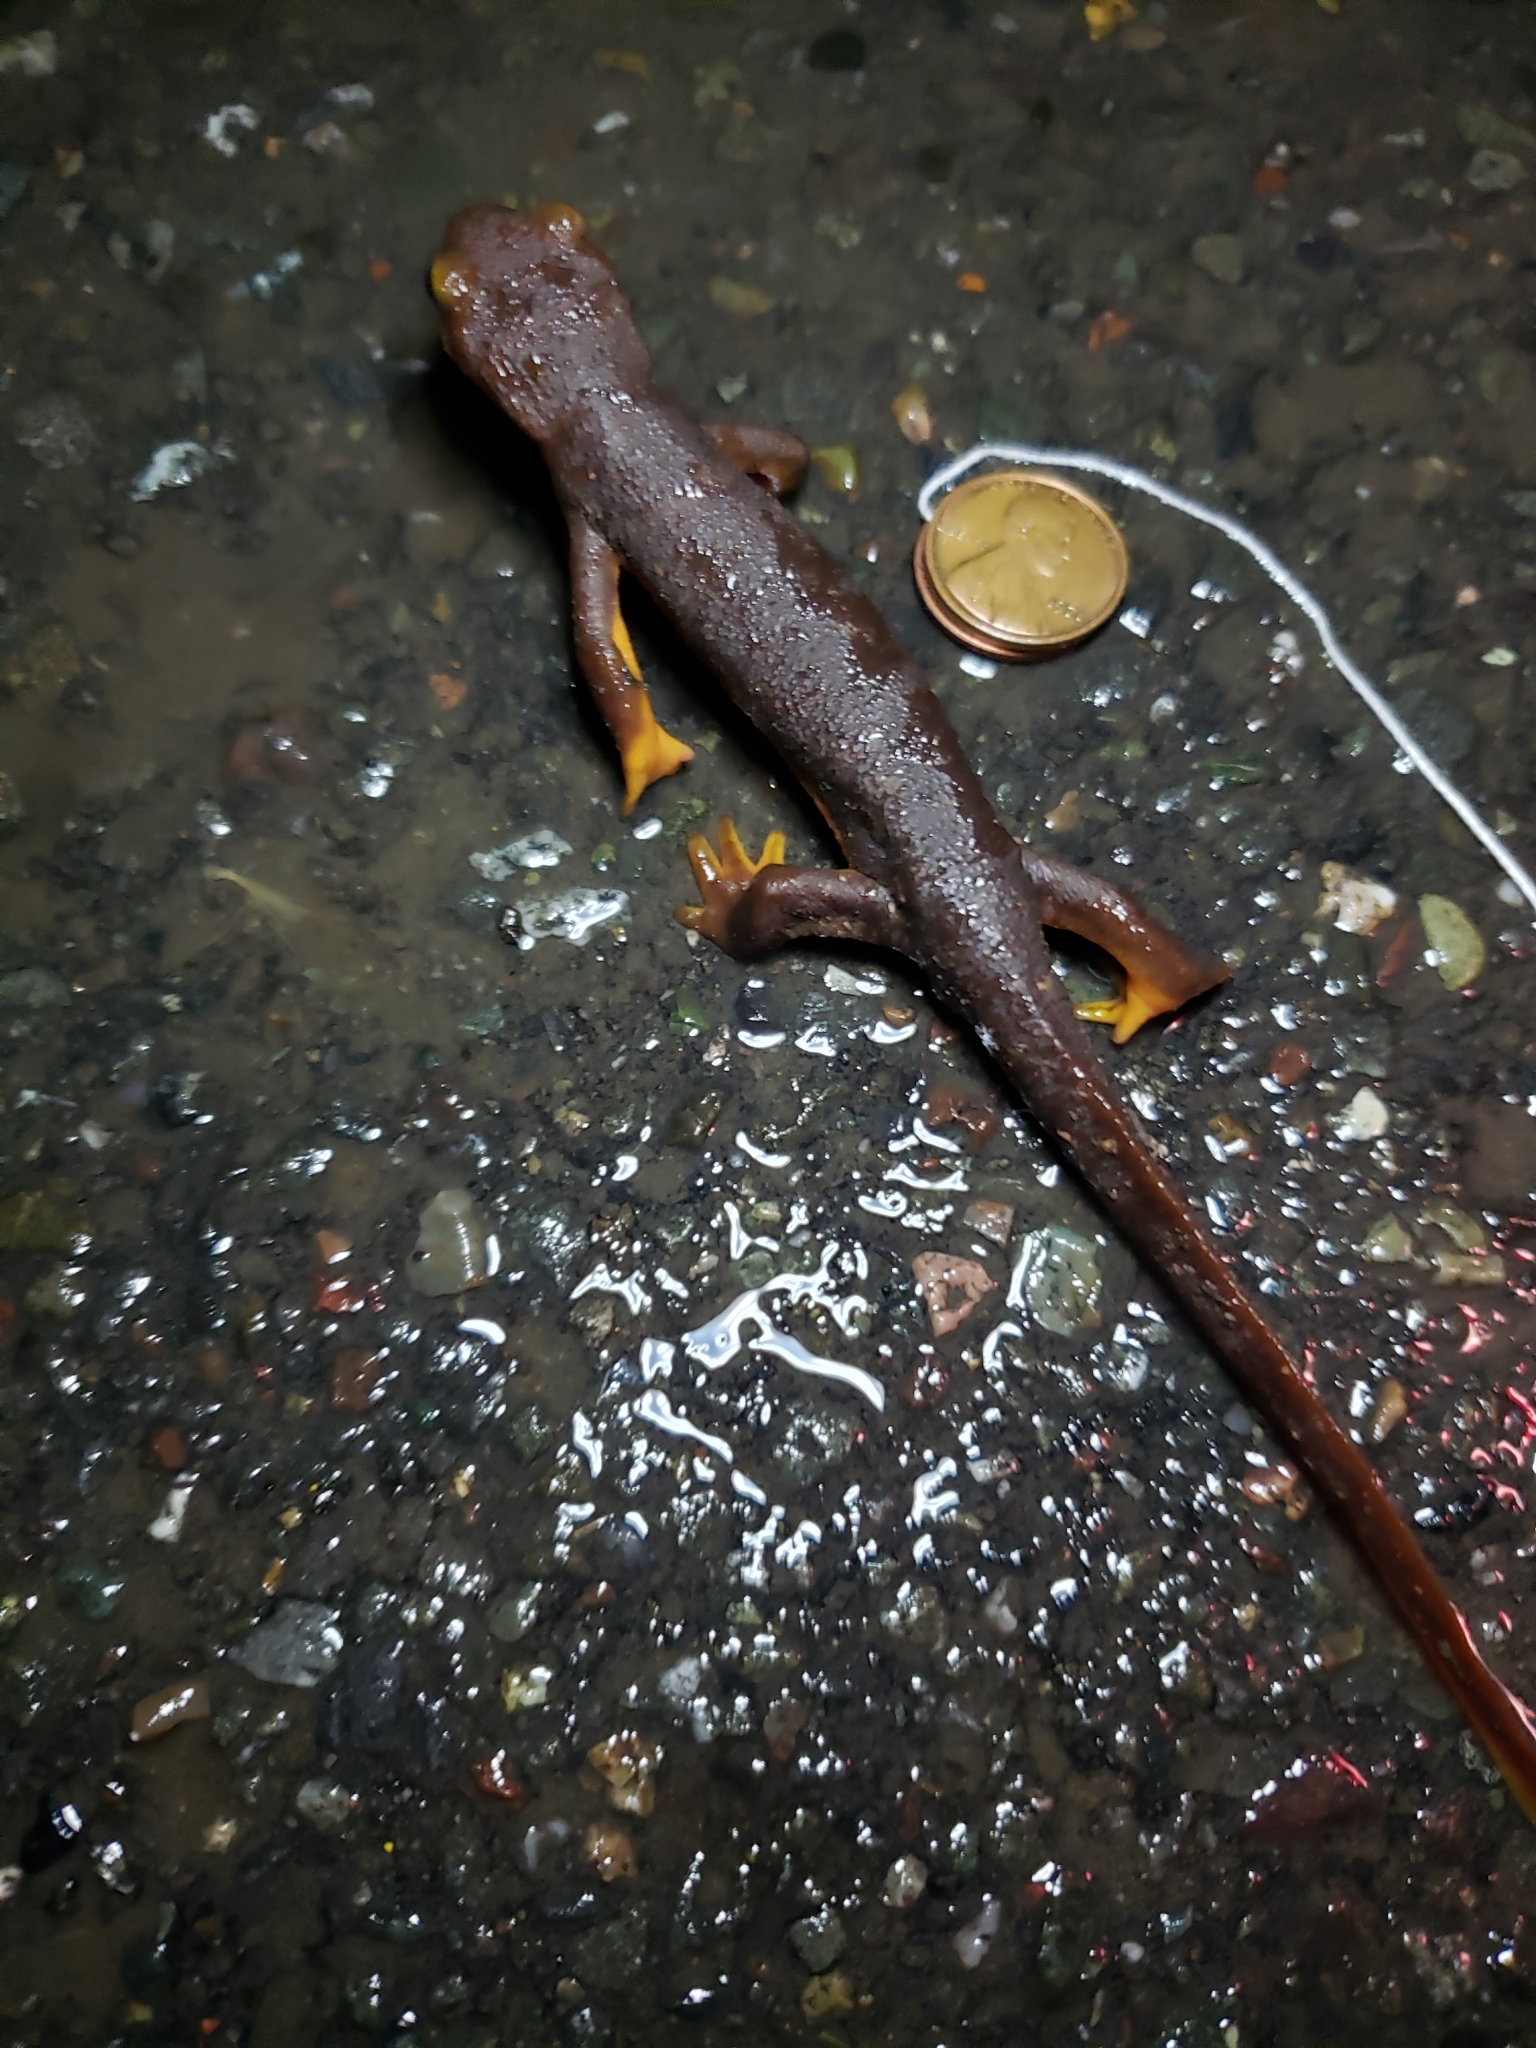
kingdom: Animalia
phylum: Chordata
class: Amphibia
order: Caudata
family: Salamandridae
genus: Taricha
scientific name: Taricha torosa
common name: California newt
